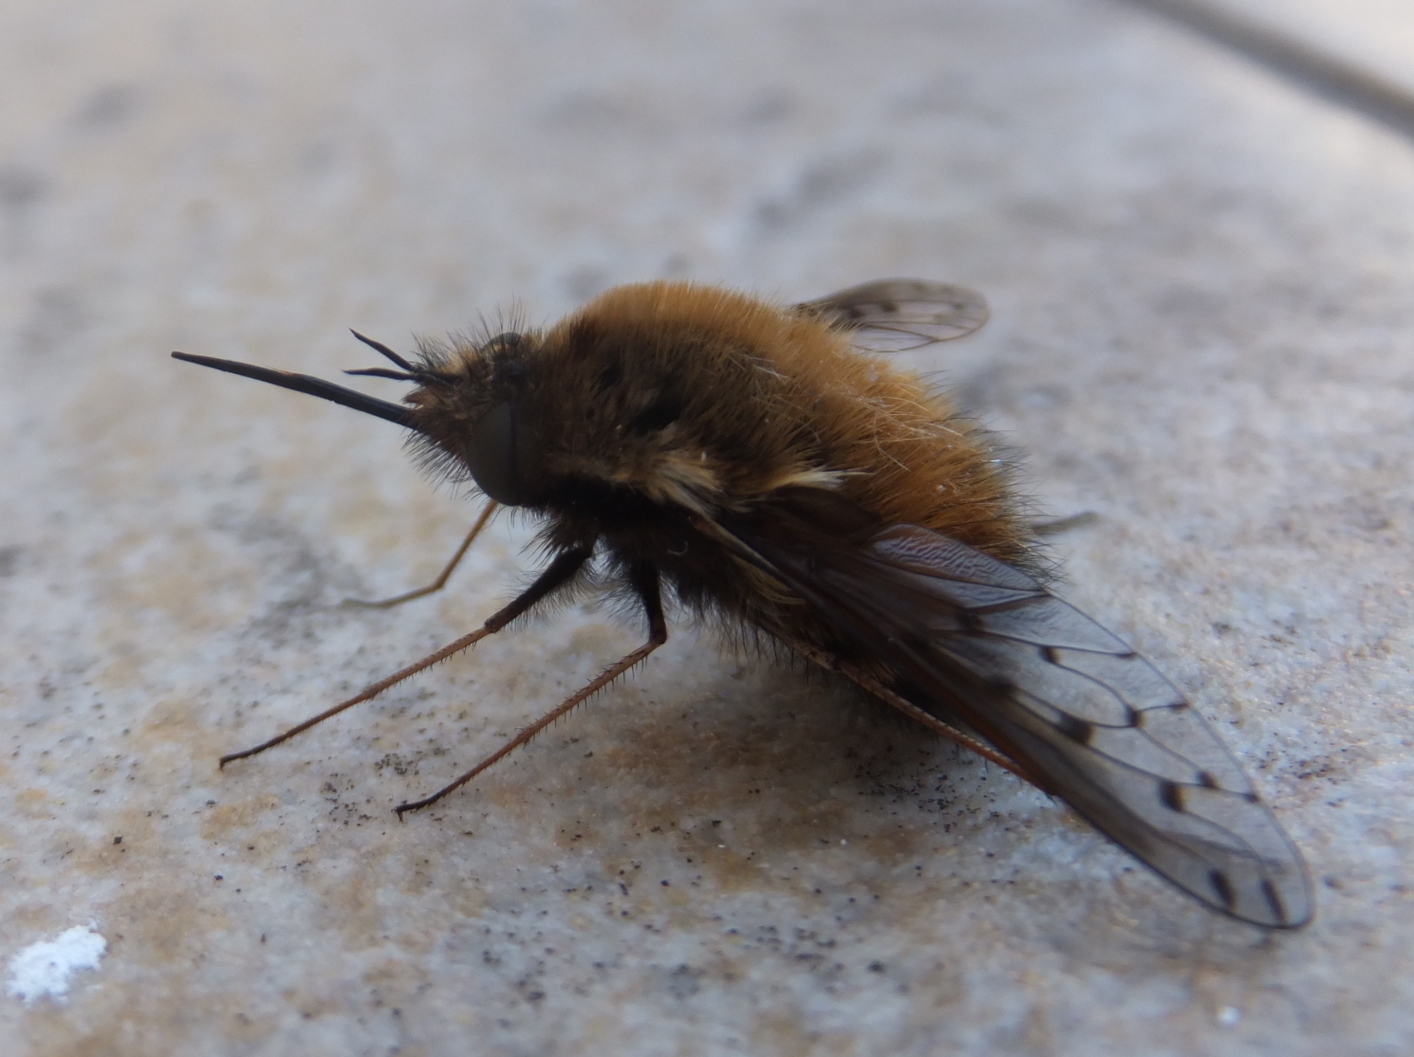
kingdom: Animalia
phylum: Arthropoda
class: Insecta
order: Diptera
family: Bombyliidae
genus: Bombylius
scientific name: Bombylius discolor
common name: Dotted bee-fly
